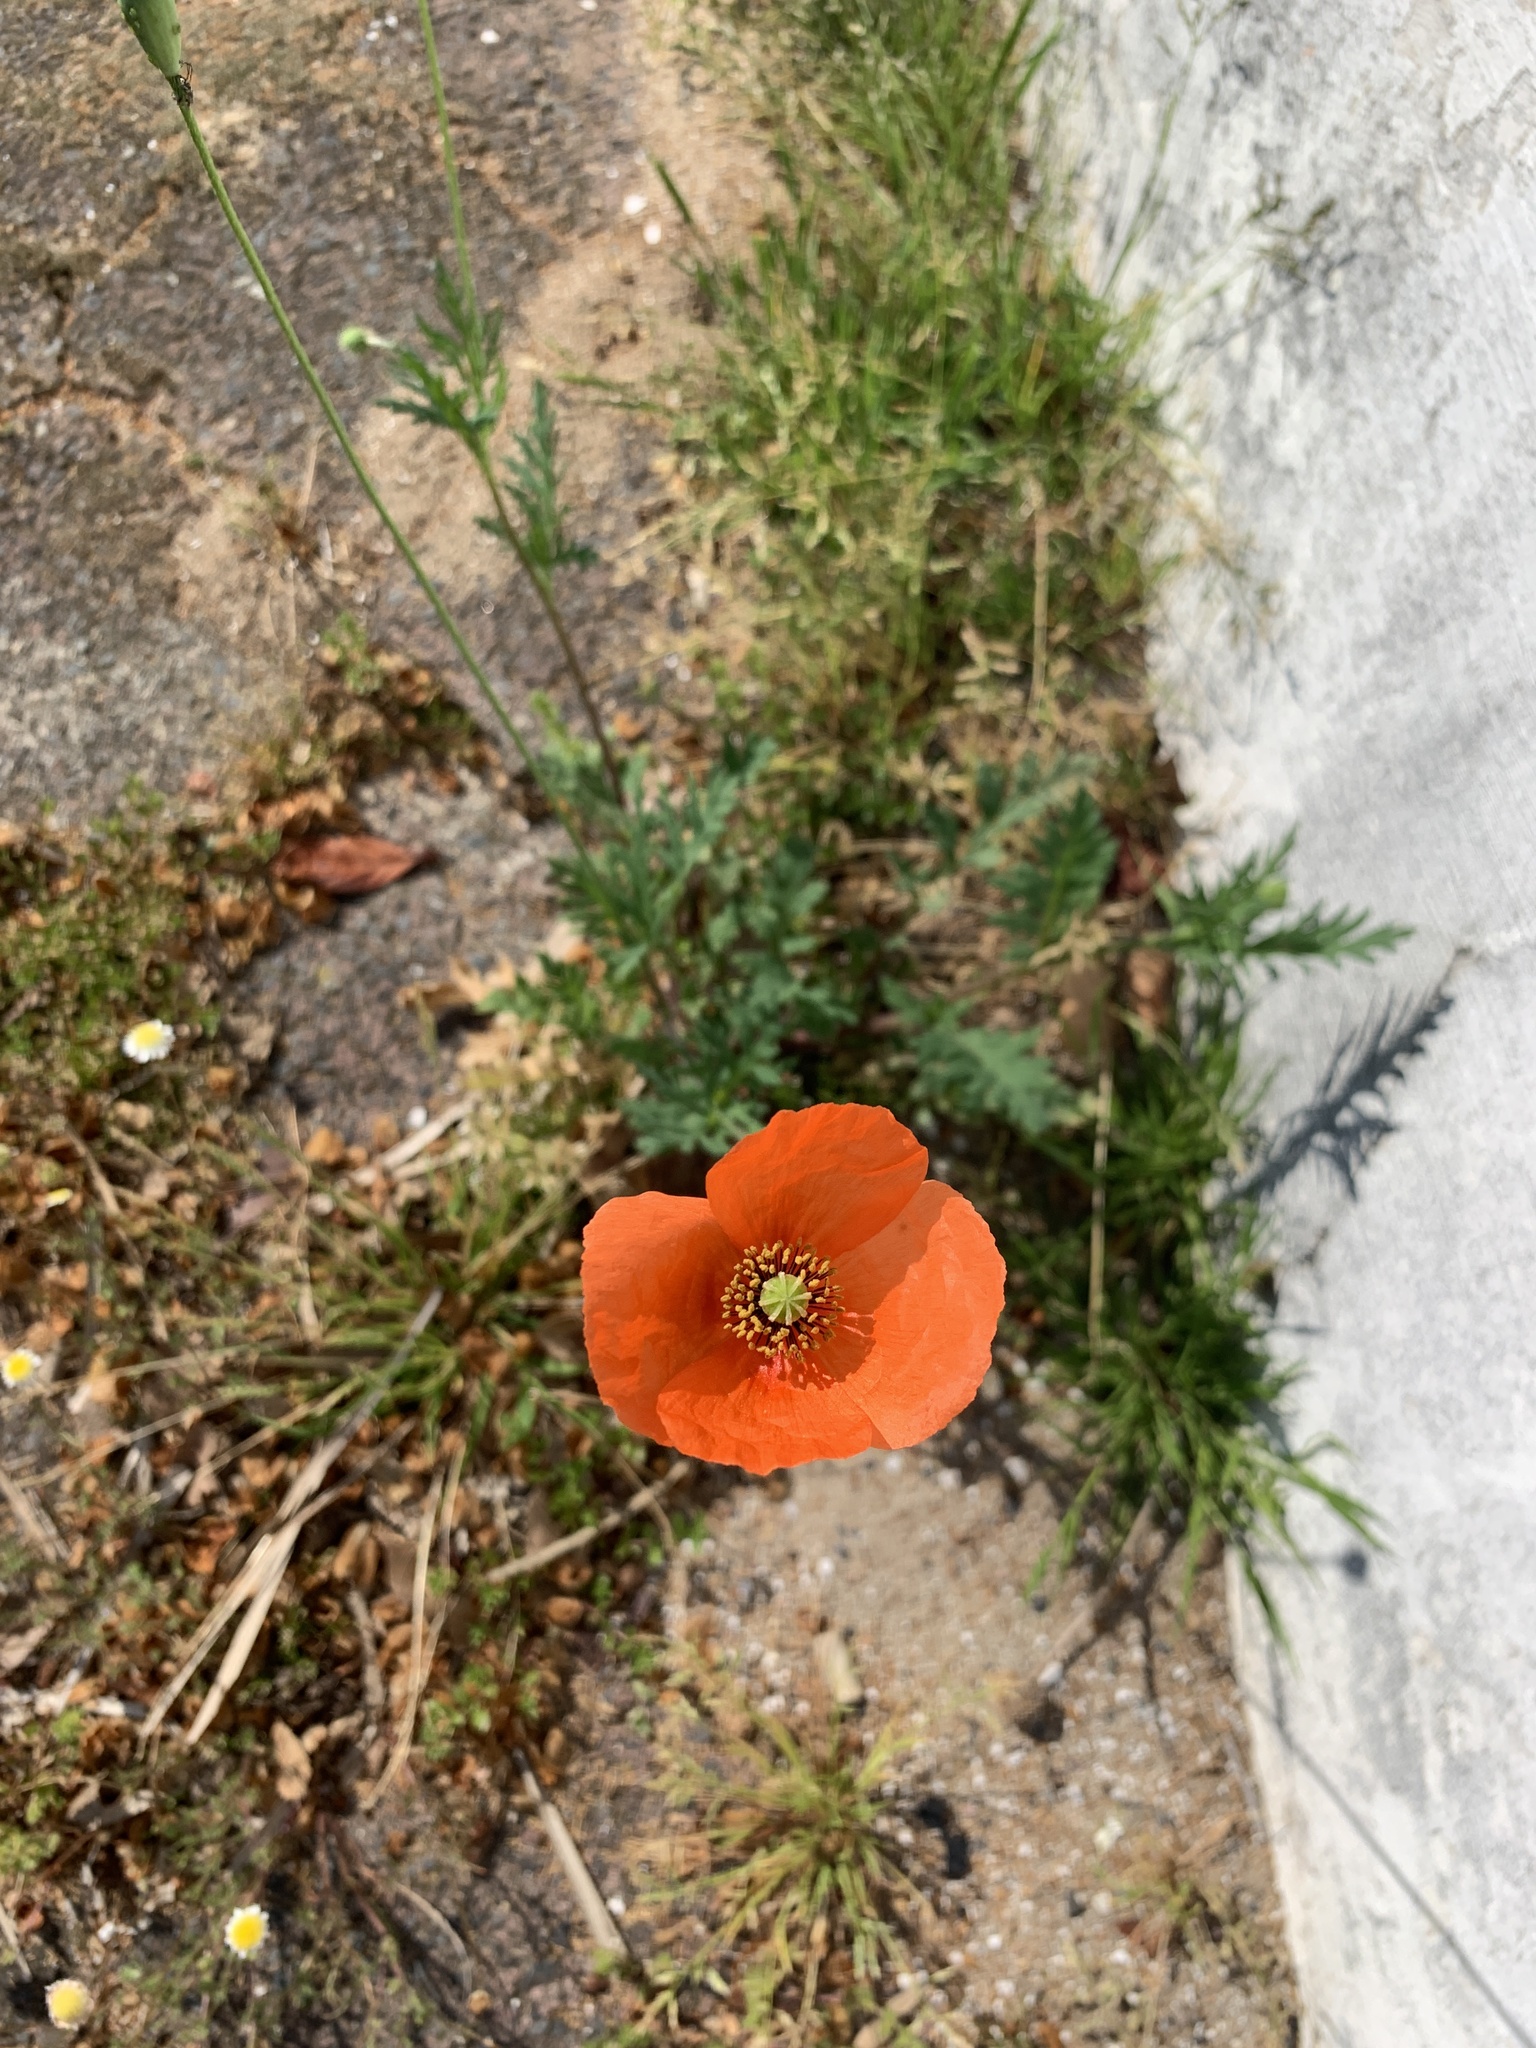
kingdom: Plantae
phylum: Tracheophyta
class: Magnoliopsida
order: Ranunculales
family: Papaveraceae
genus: Papaver
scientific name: Papaver rhoeas
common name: Corn poppy
